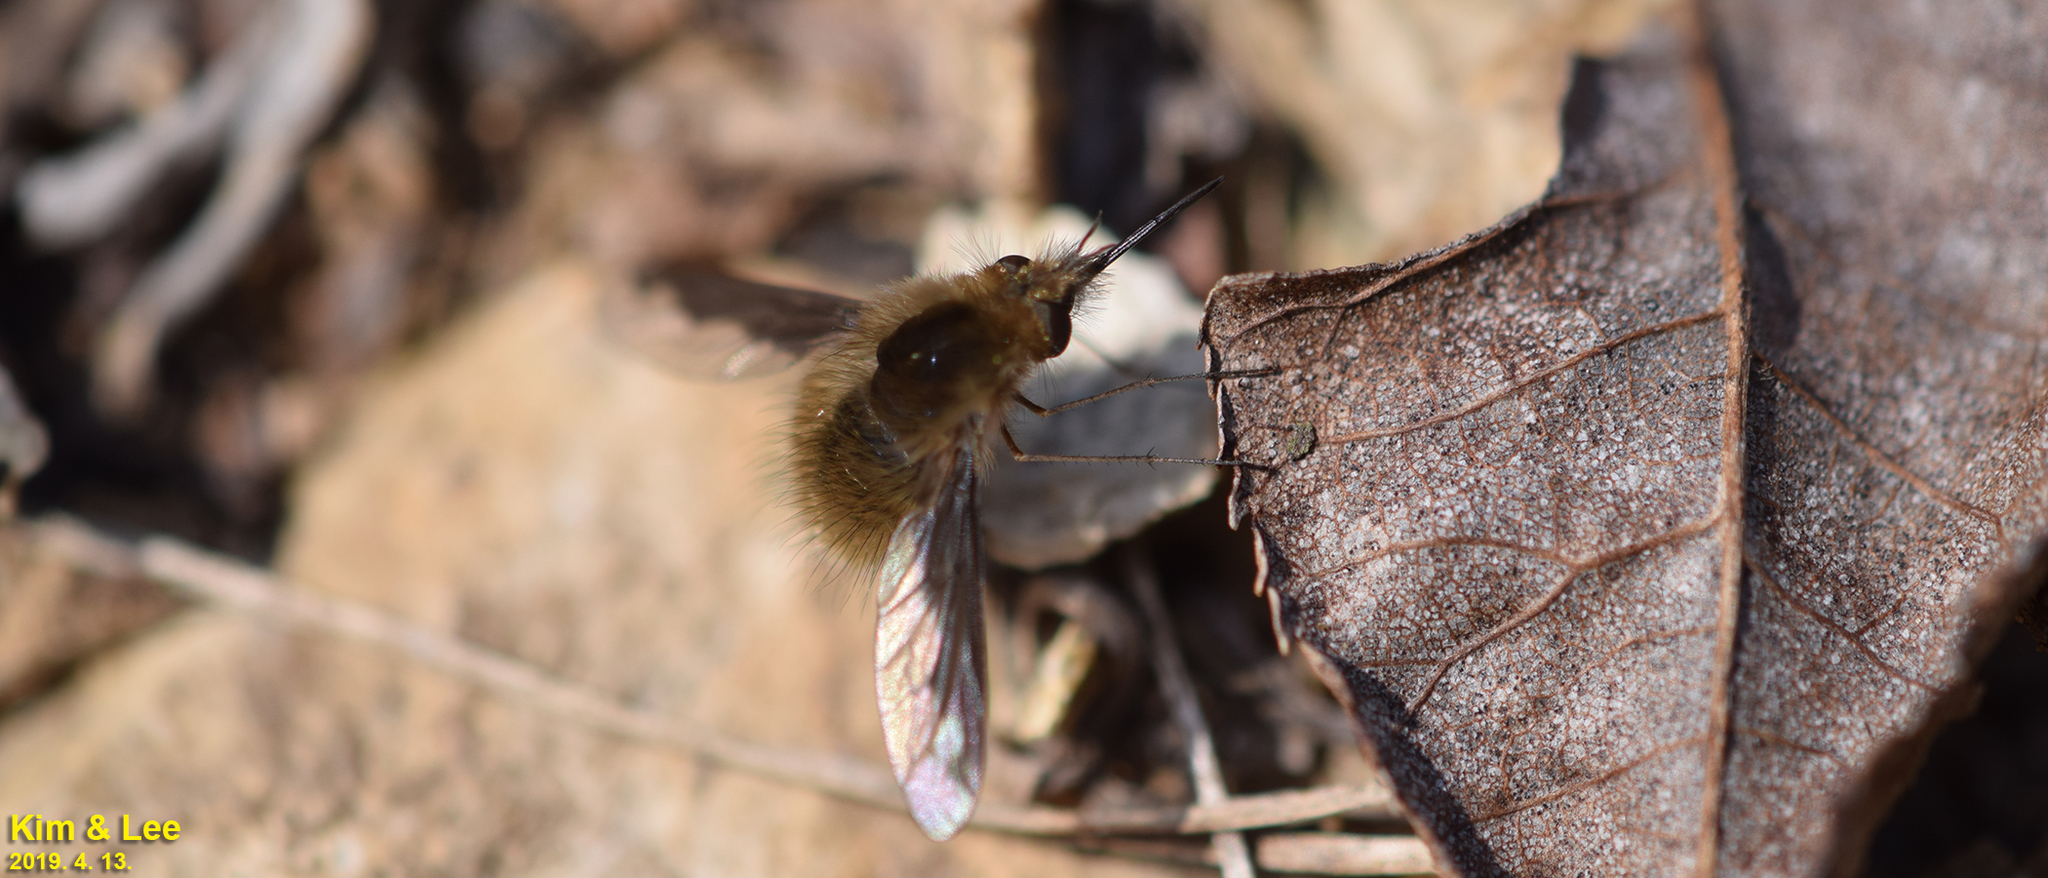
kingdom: Animalia
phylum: Arthropoda
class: Insecta
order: Diptera
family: Bombyliidae
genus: Bombylius
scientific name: Bombylius major
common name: Bee fly
